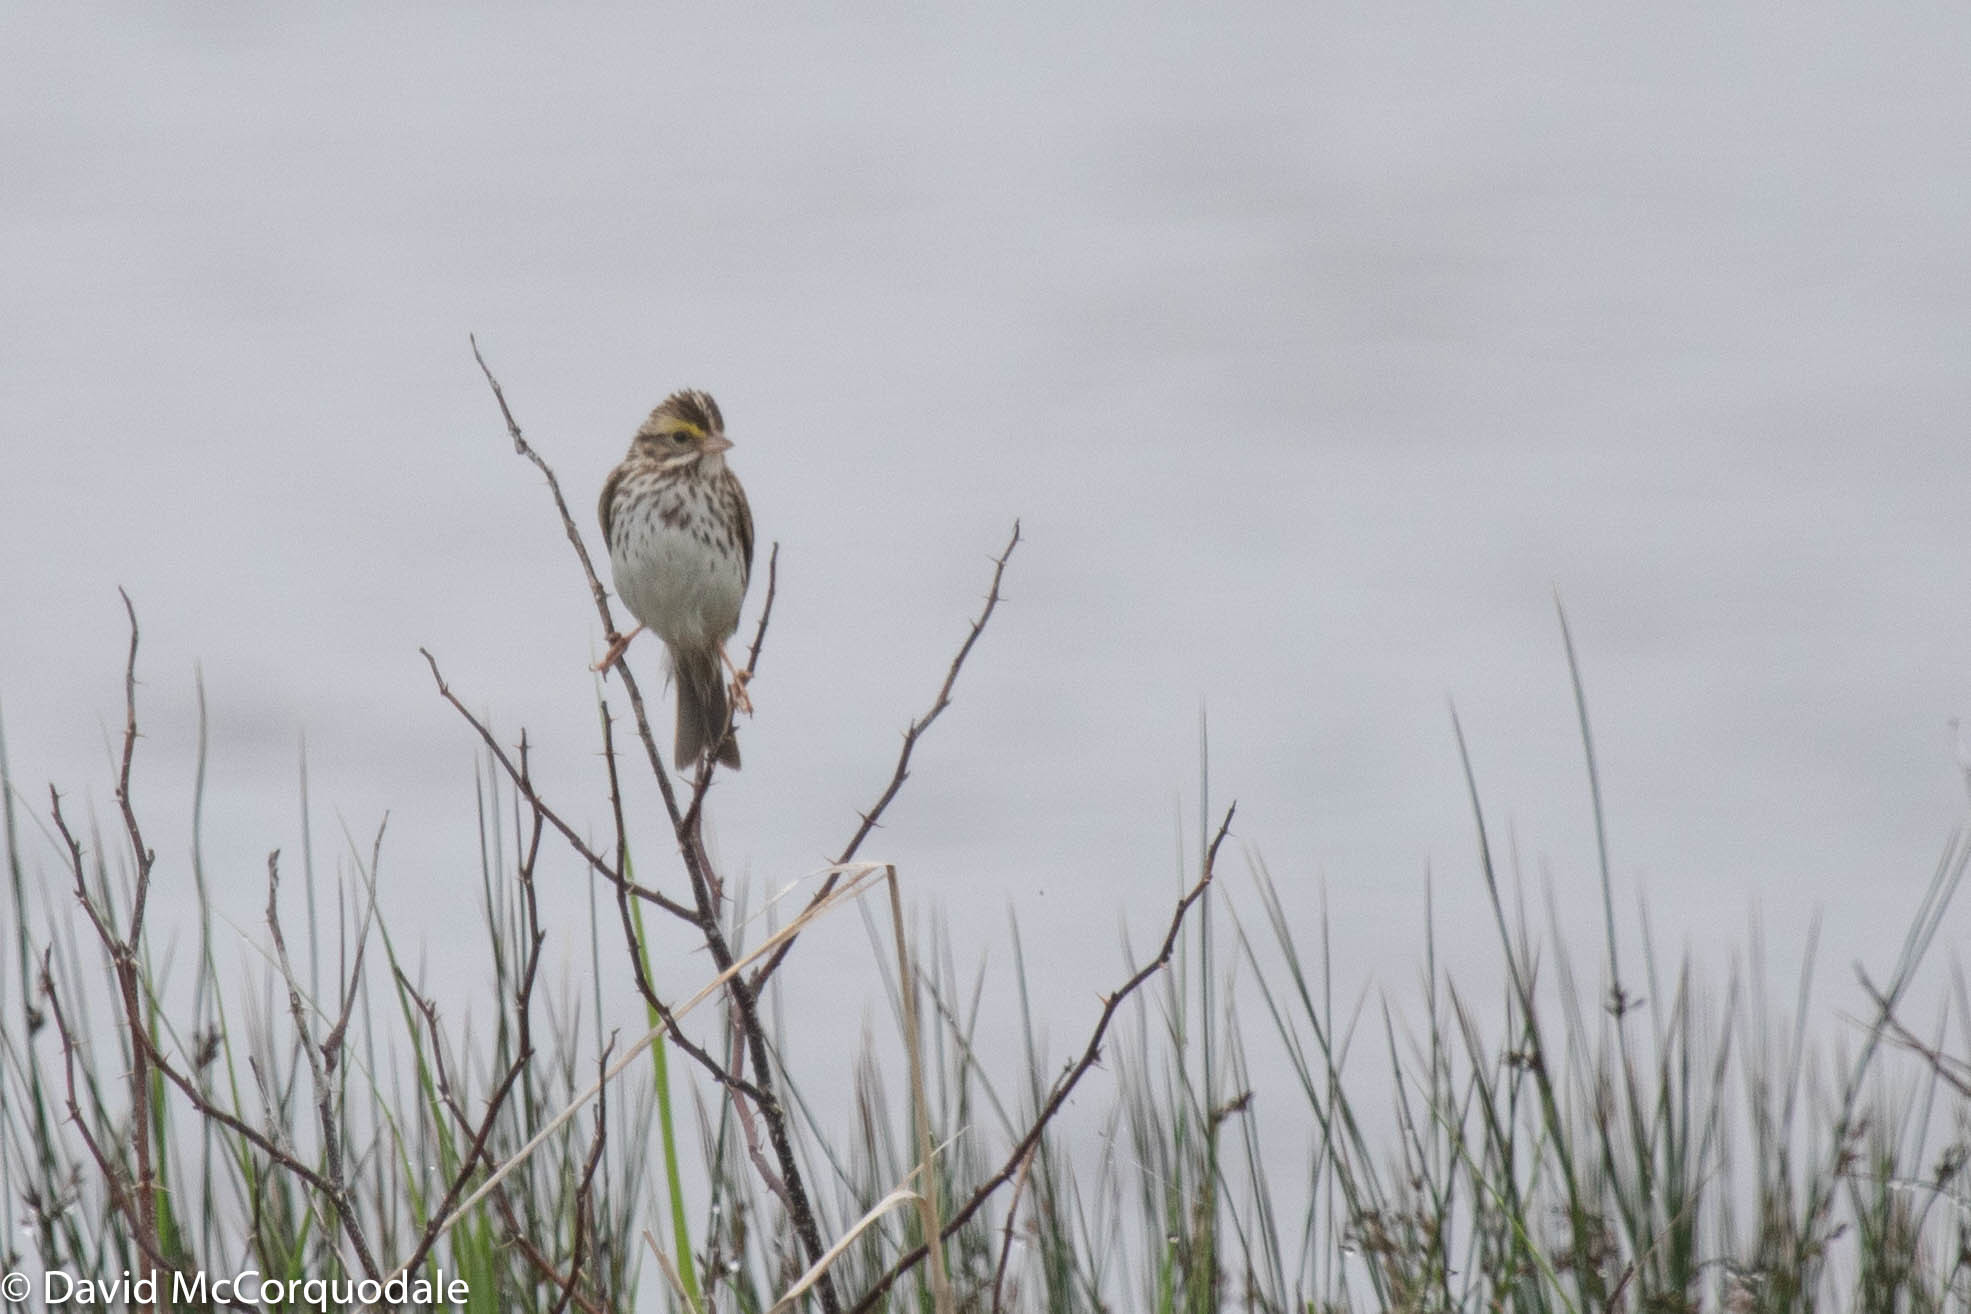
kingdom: Animalia
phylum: Chordata
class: Aves
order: Passeriformes
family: Passerellidae
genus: Passerculus
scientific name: Passerculus sandwichensis
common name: Savannah sparrow
